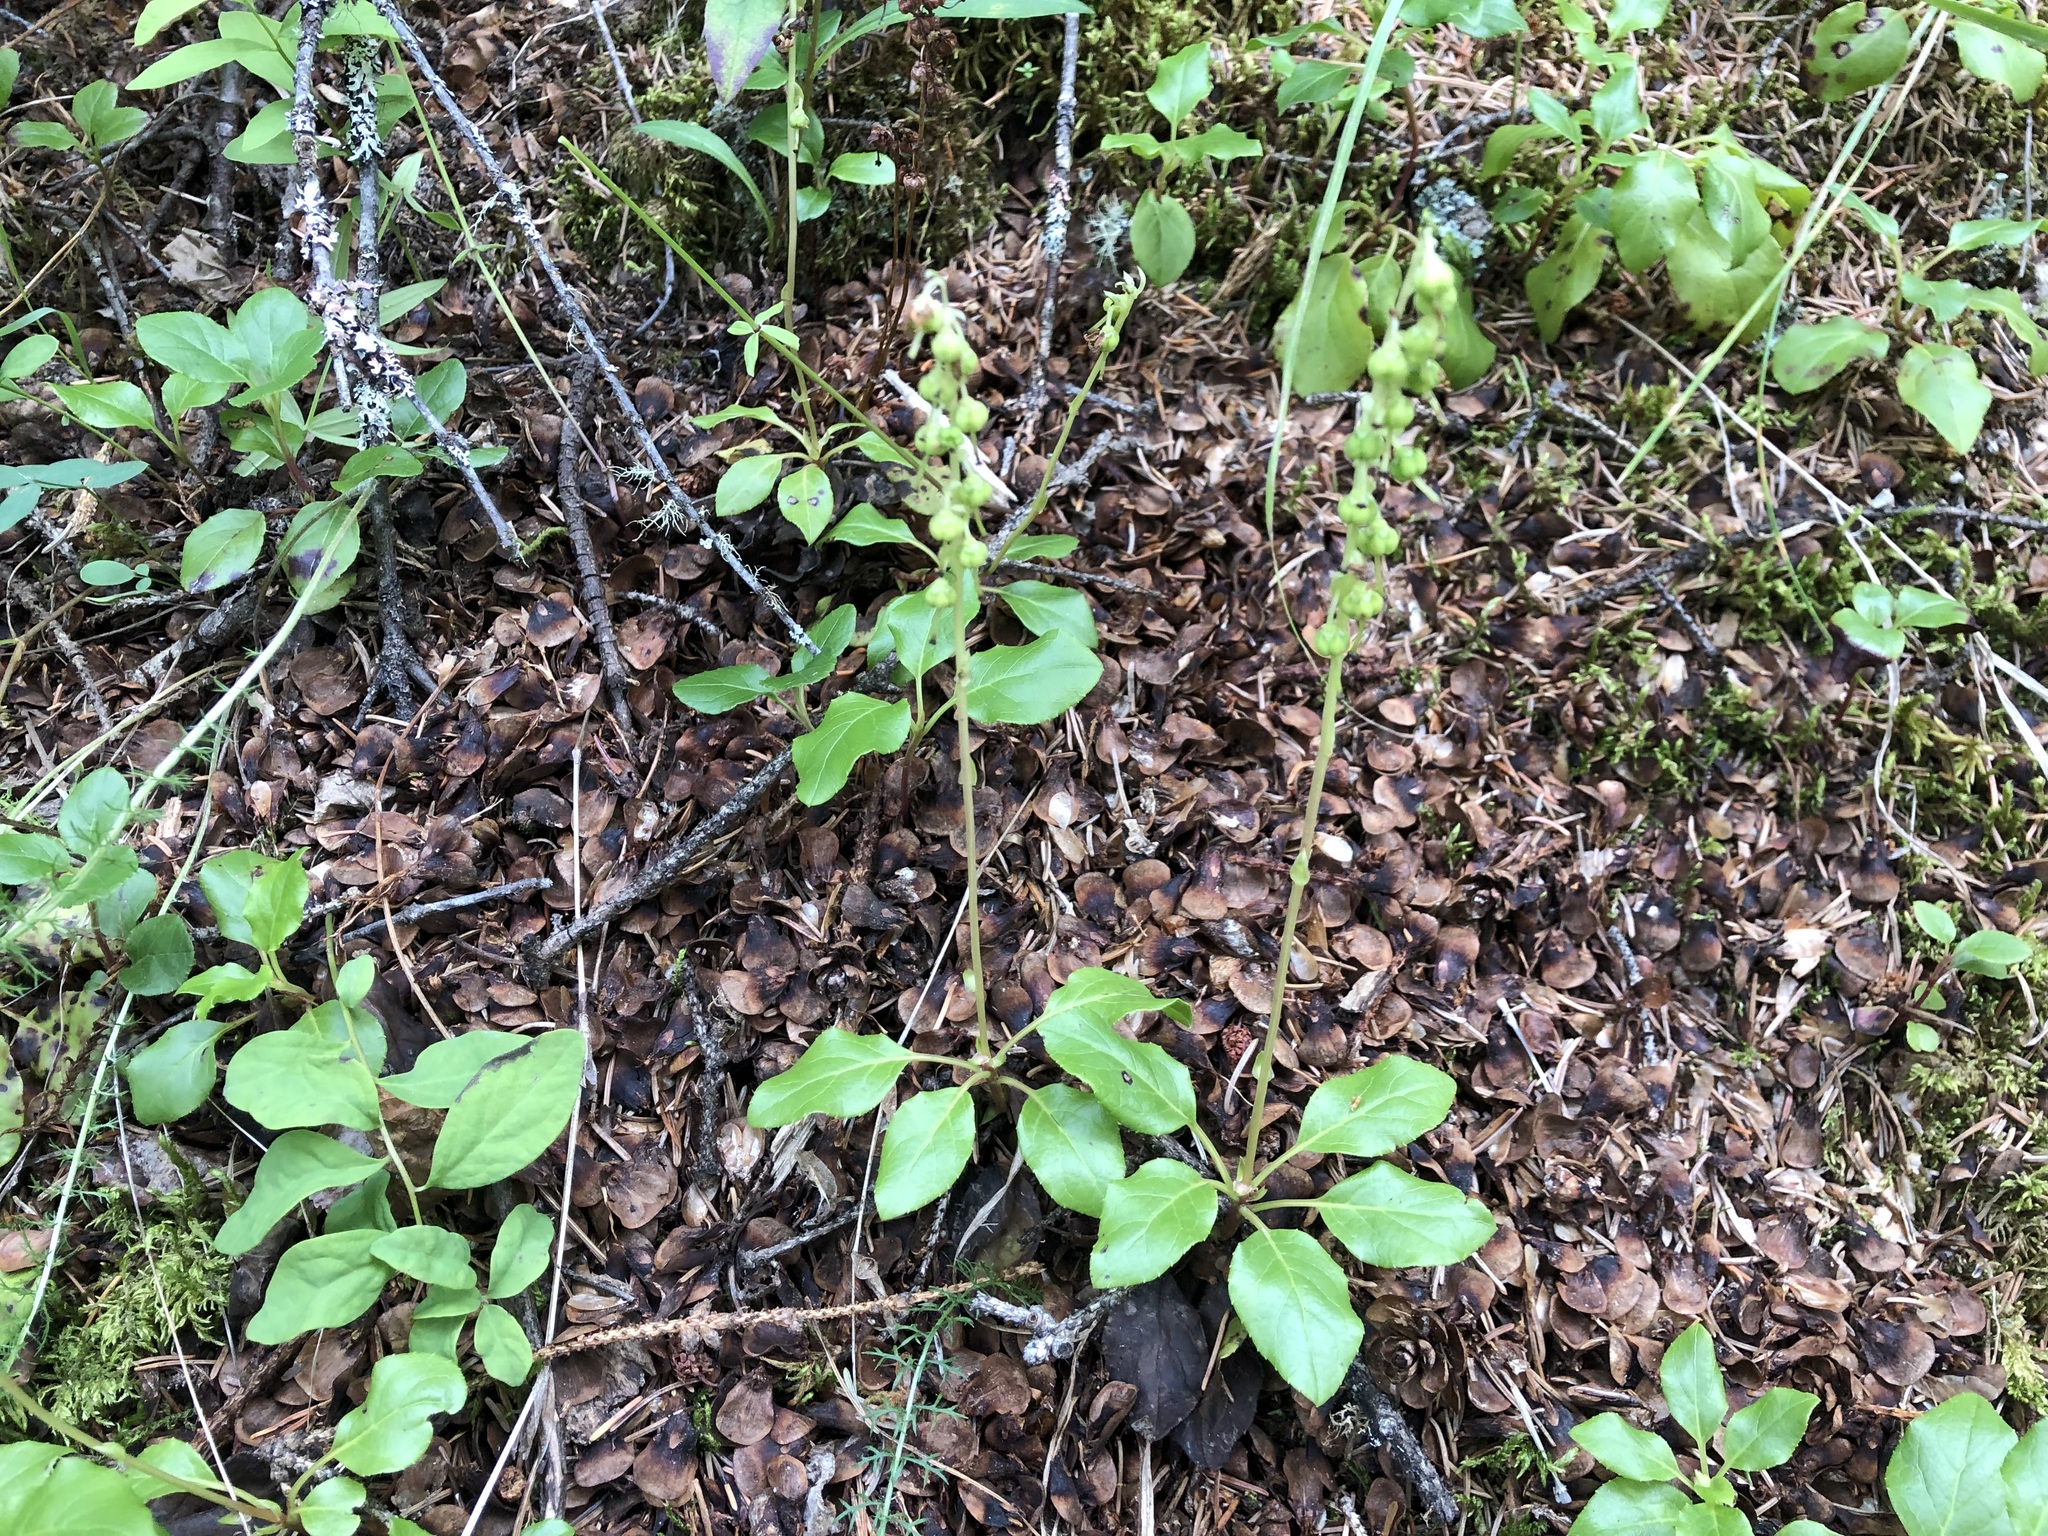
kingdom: Plantae
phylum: Tracheophyta
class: Magnoliopsida
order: Ericales
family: Ericaceae
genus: Orthilia
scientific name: Orthilia secunda
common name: One-sided orthilia
